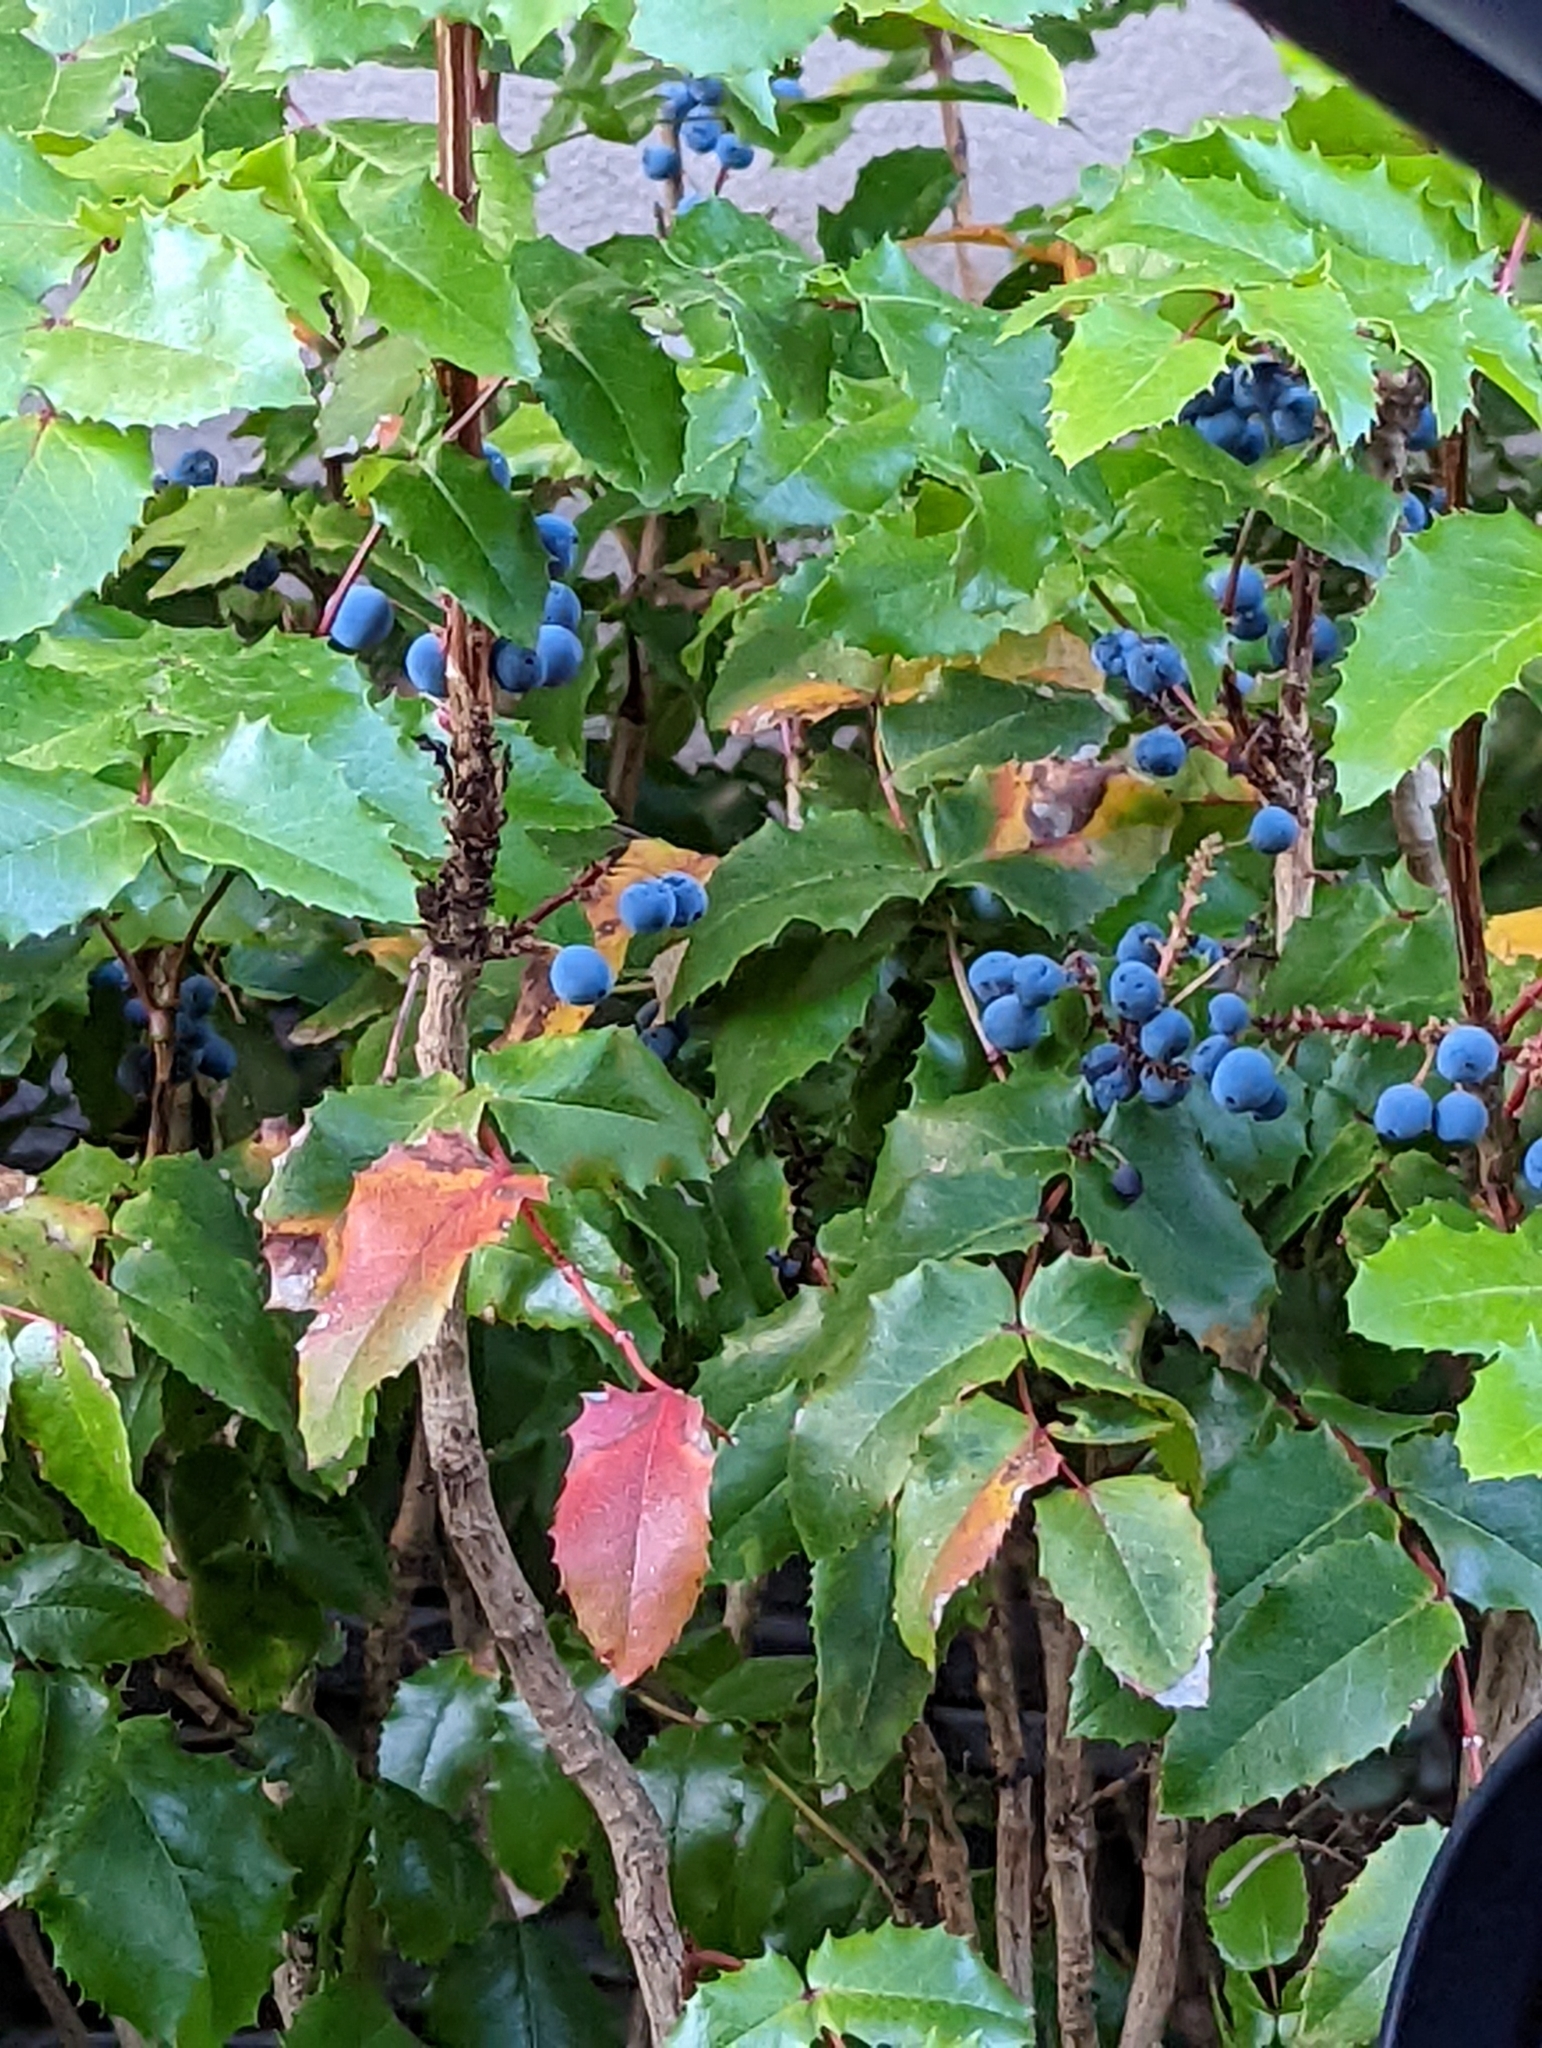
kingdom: Plantae
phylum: Tracheophyta
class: Magnoliopsida
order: Ranunculales
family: Berberidaceae
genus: Mahonia
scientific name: Mahonia aquifolium
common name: Oregon-grape
